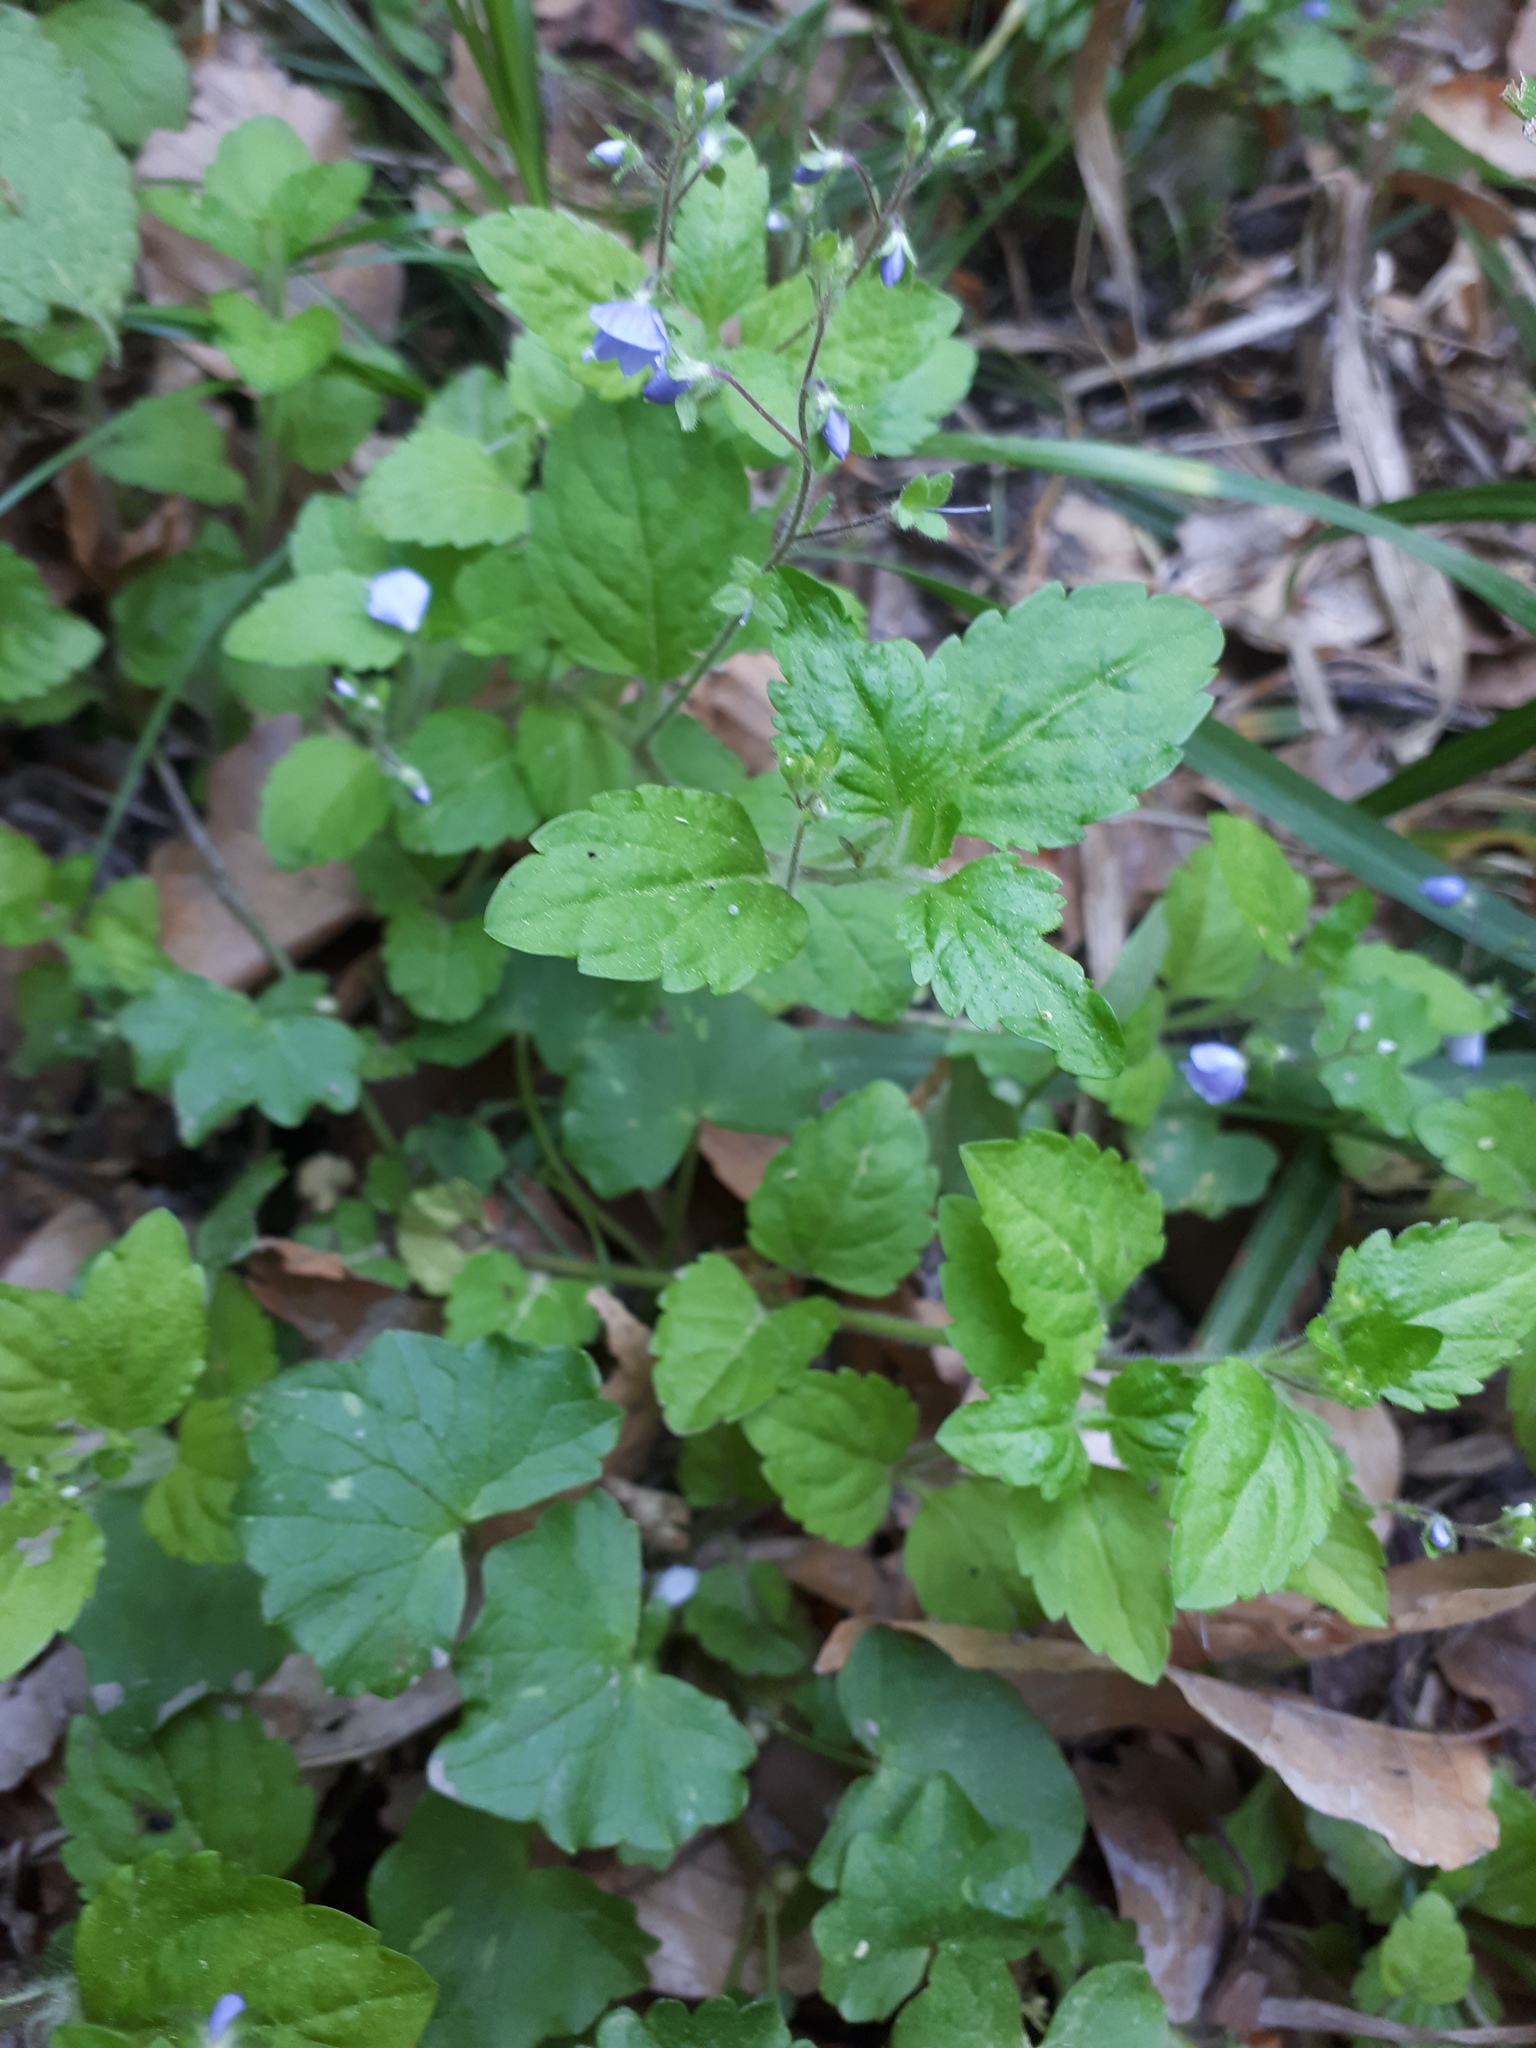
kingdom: Plantae
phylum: Tracheophyta
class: Magnoliopsida
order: Lamiales
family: Plantaginaceae
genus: Veronica
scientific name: Veronica montana
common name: Wood speedwell
